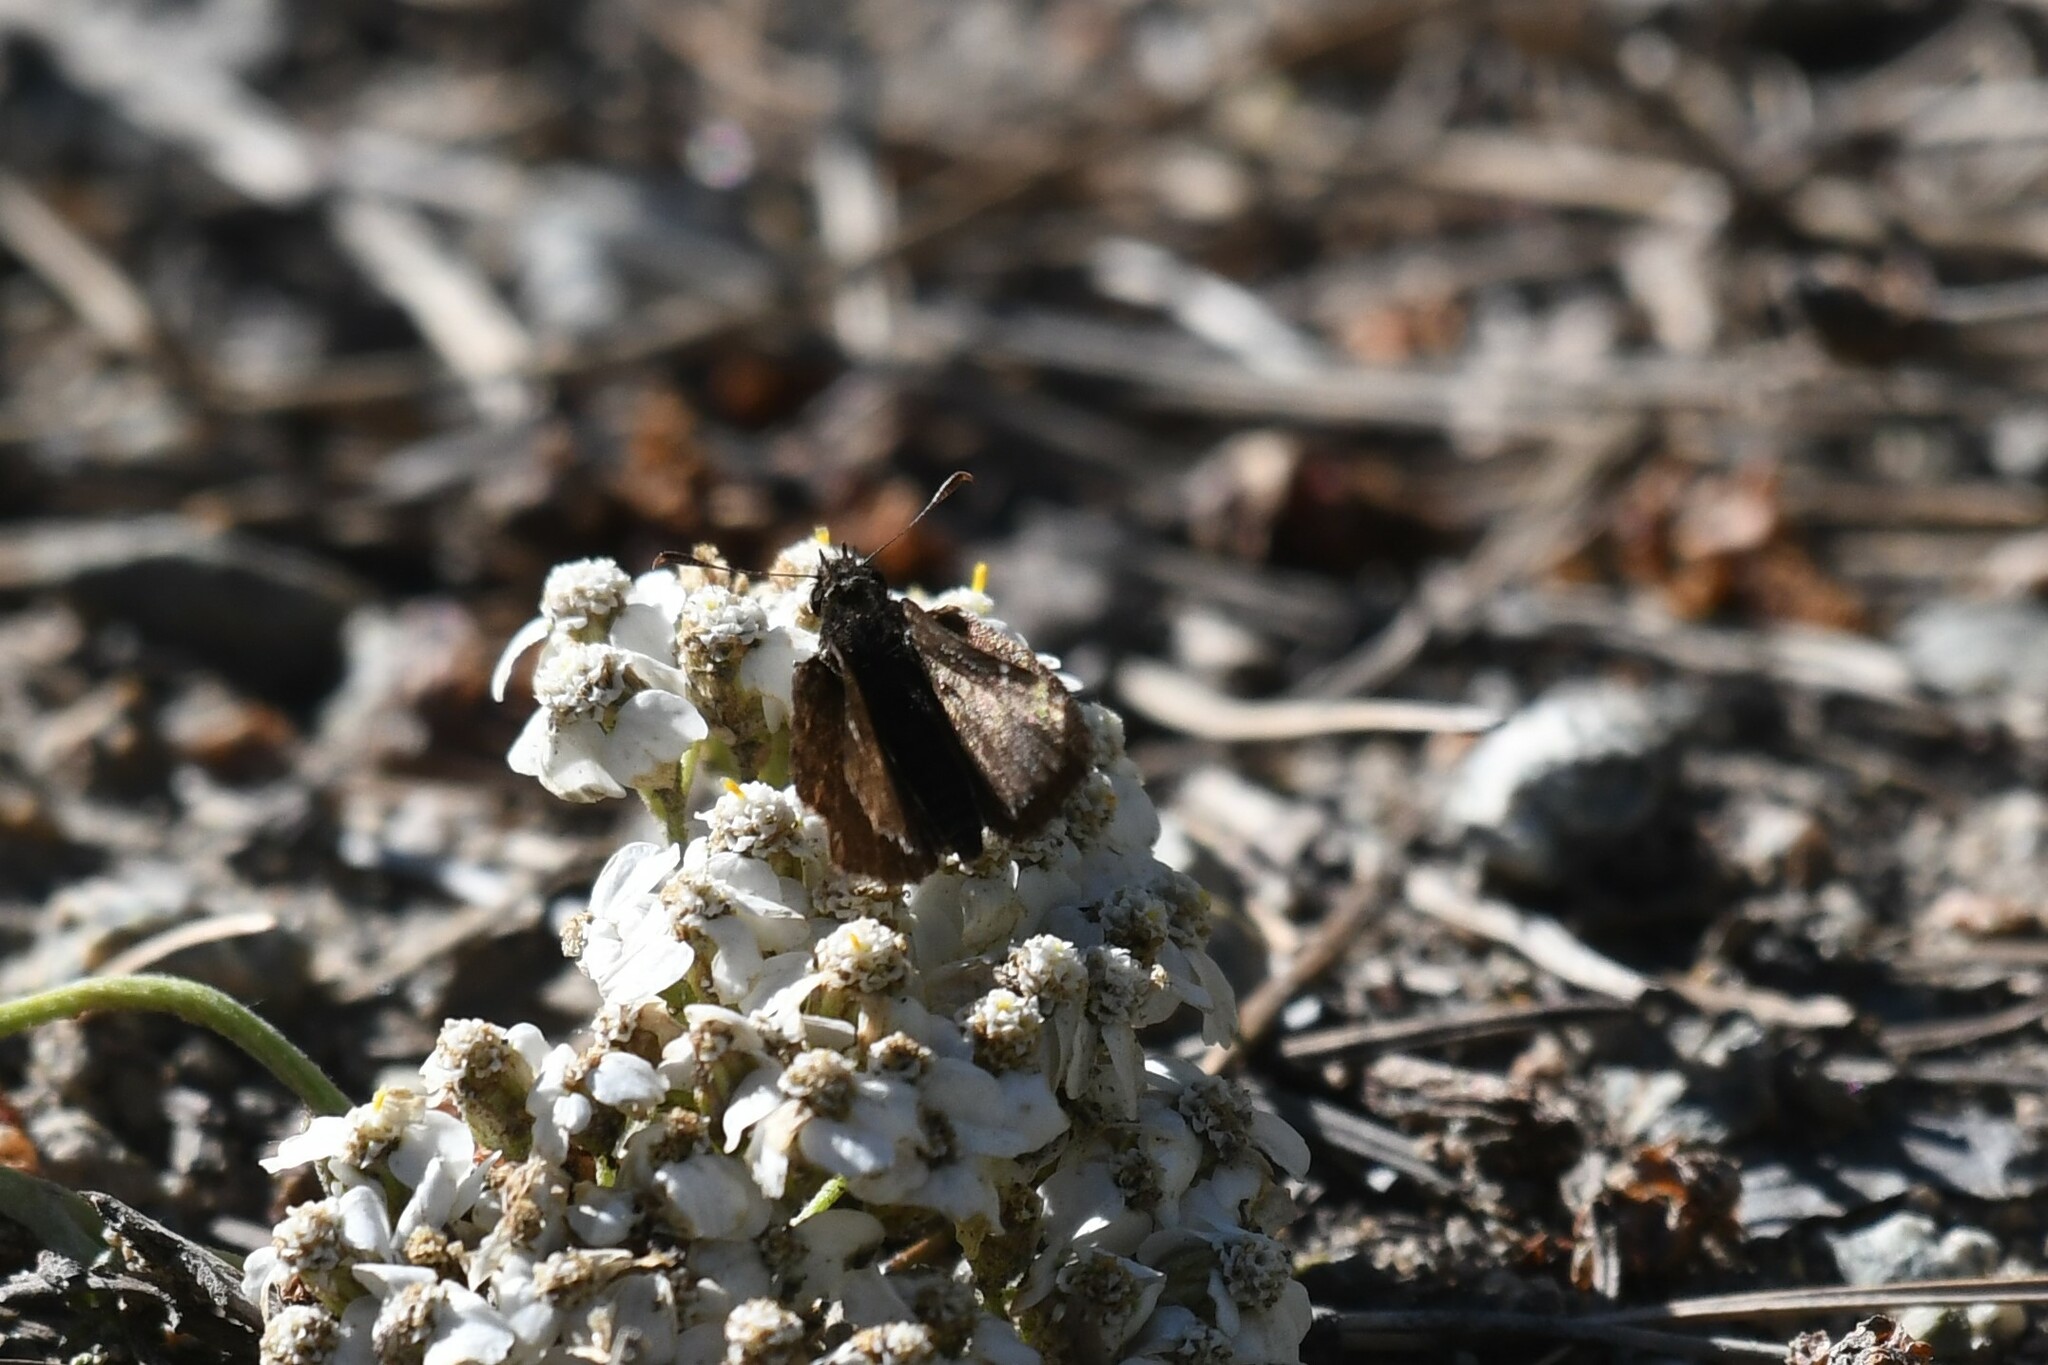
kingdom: Animalia
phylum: Arthropoda
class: Insecta
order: Lepidoptera
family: Hesperiidae
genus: Mastor
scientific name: Mastor vialis
